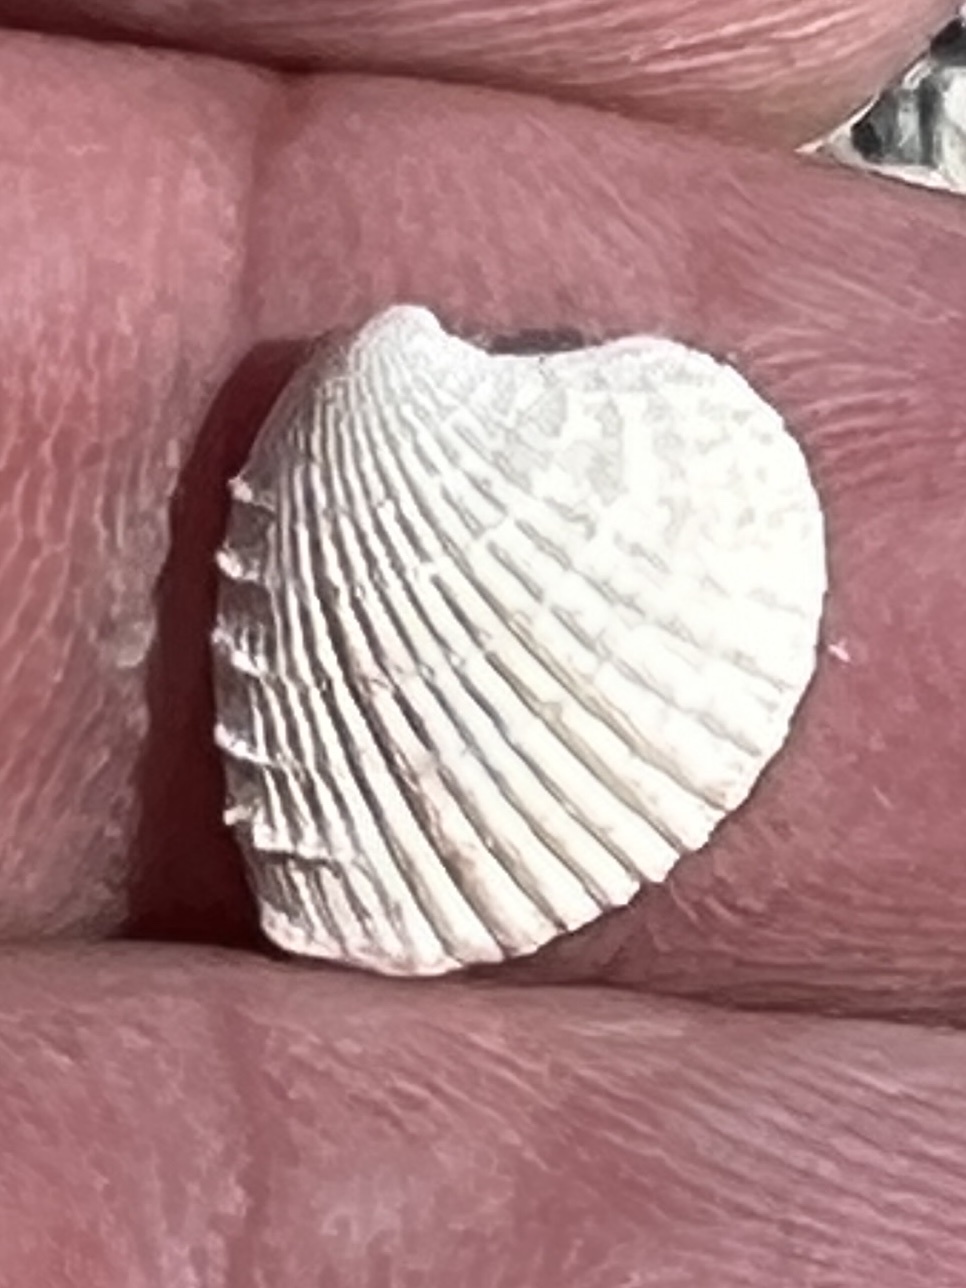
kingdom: Animalia
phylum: Mollusca
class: Bivalvia
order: Venerida
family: Veneridae
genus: Chione
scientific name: Chione elevata
